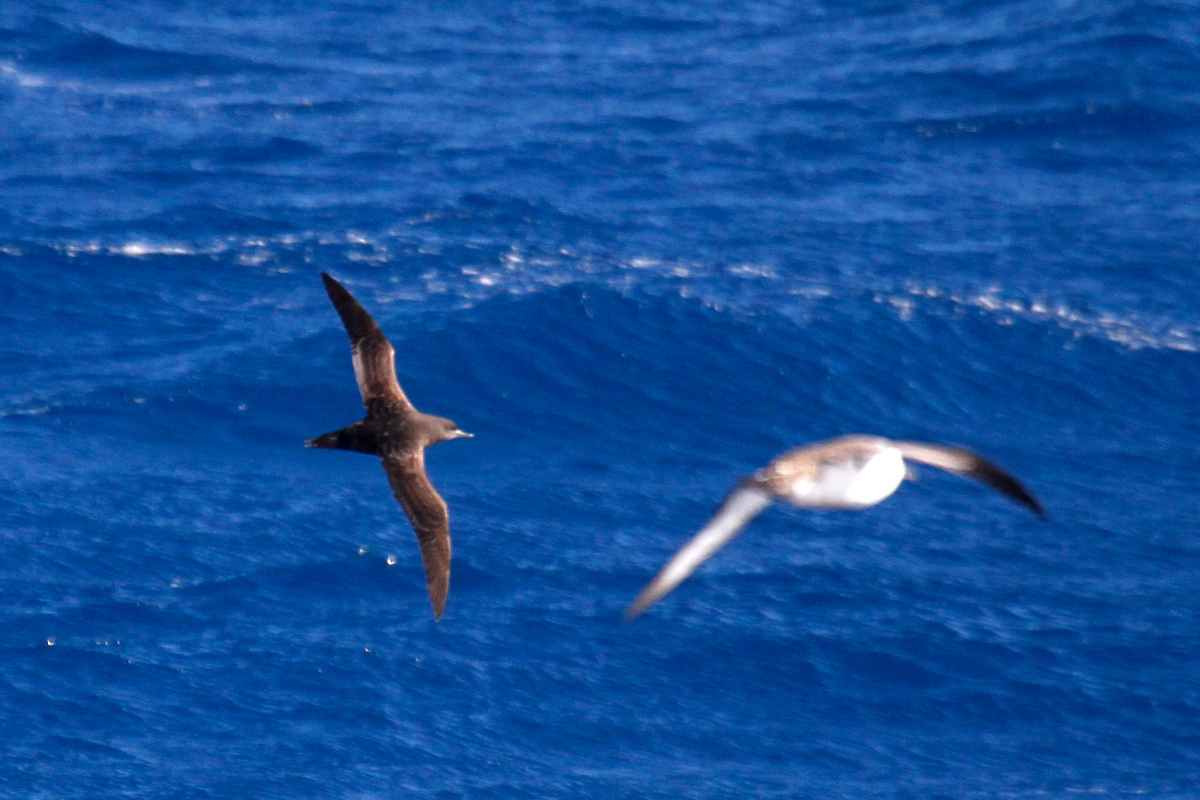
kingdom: Animalia
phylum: Chordata
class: Aves
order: Procellariiformes
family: Procellariidae
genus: Puffinus
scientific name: Puffinus griseus
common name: Sooty shearwater
